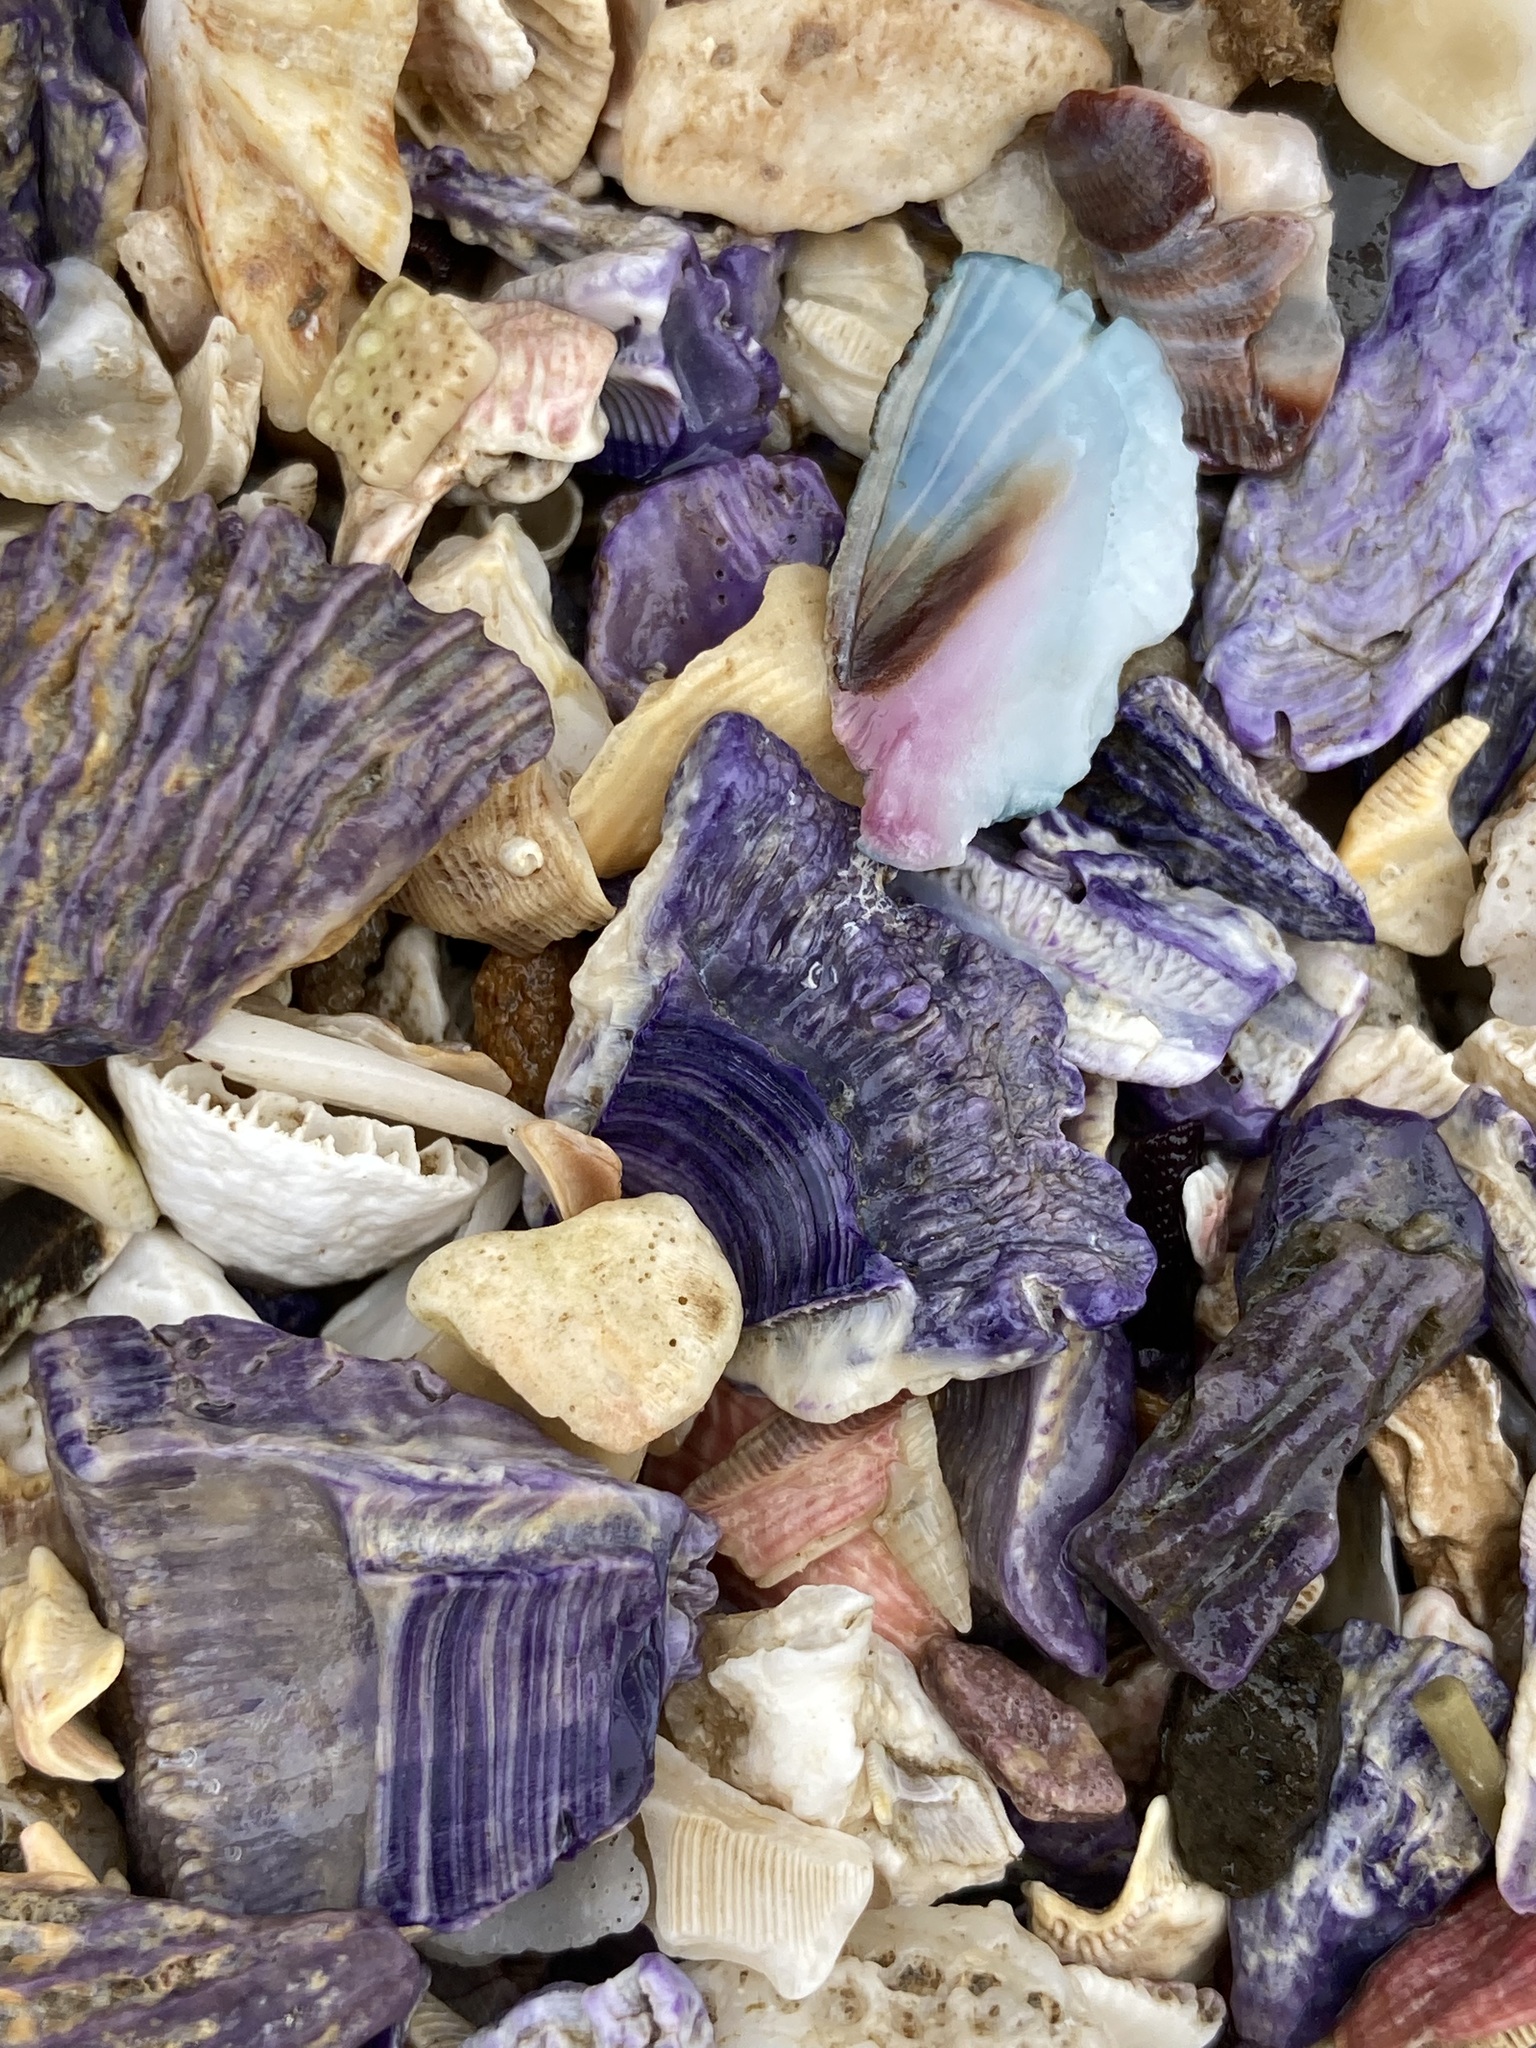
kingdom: Animalia
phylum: Arthropoda
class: Maxillopoda
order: Sessilia
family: Austrobalanidae
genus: Austrobalanus
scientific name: Austrobalanus imperator
